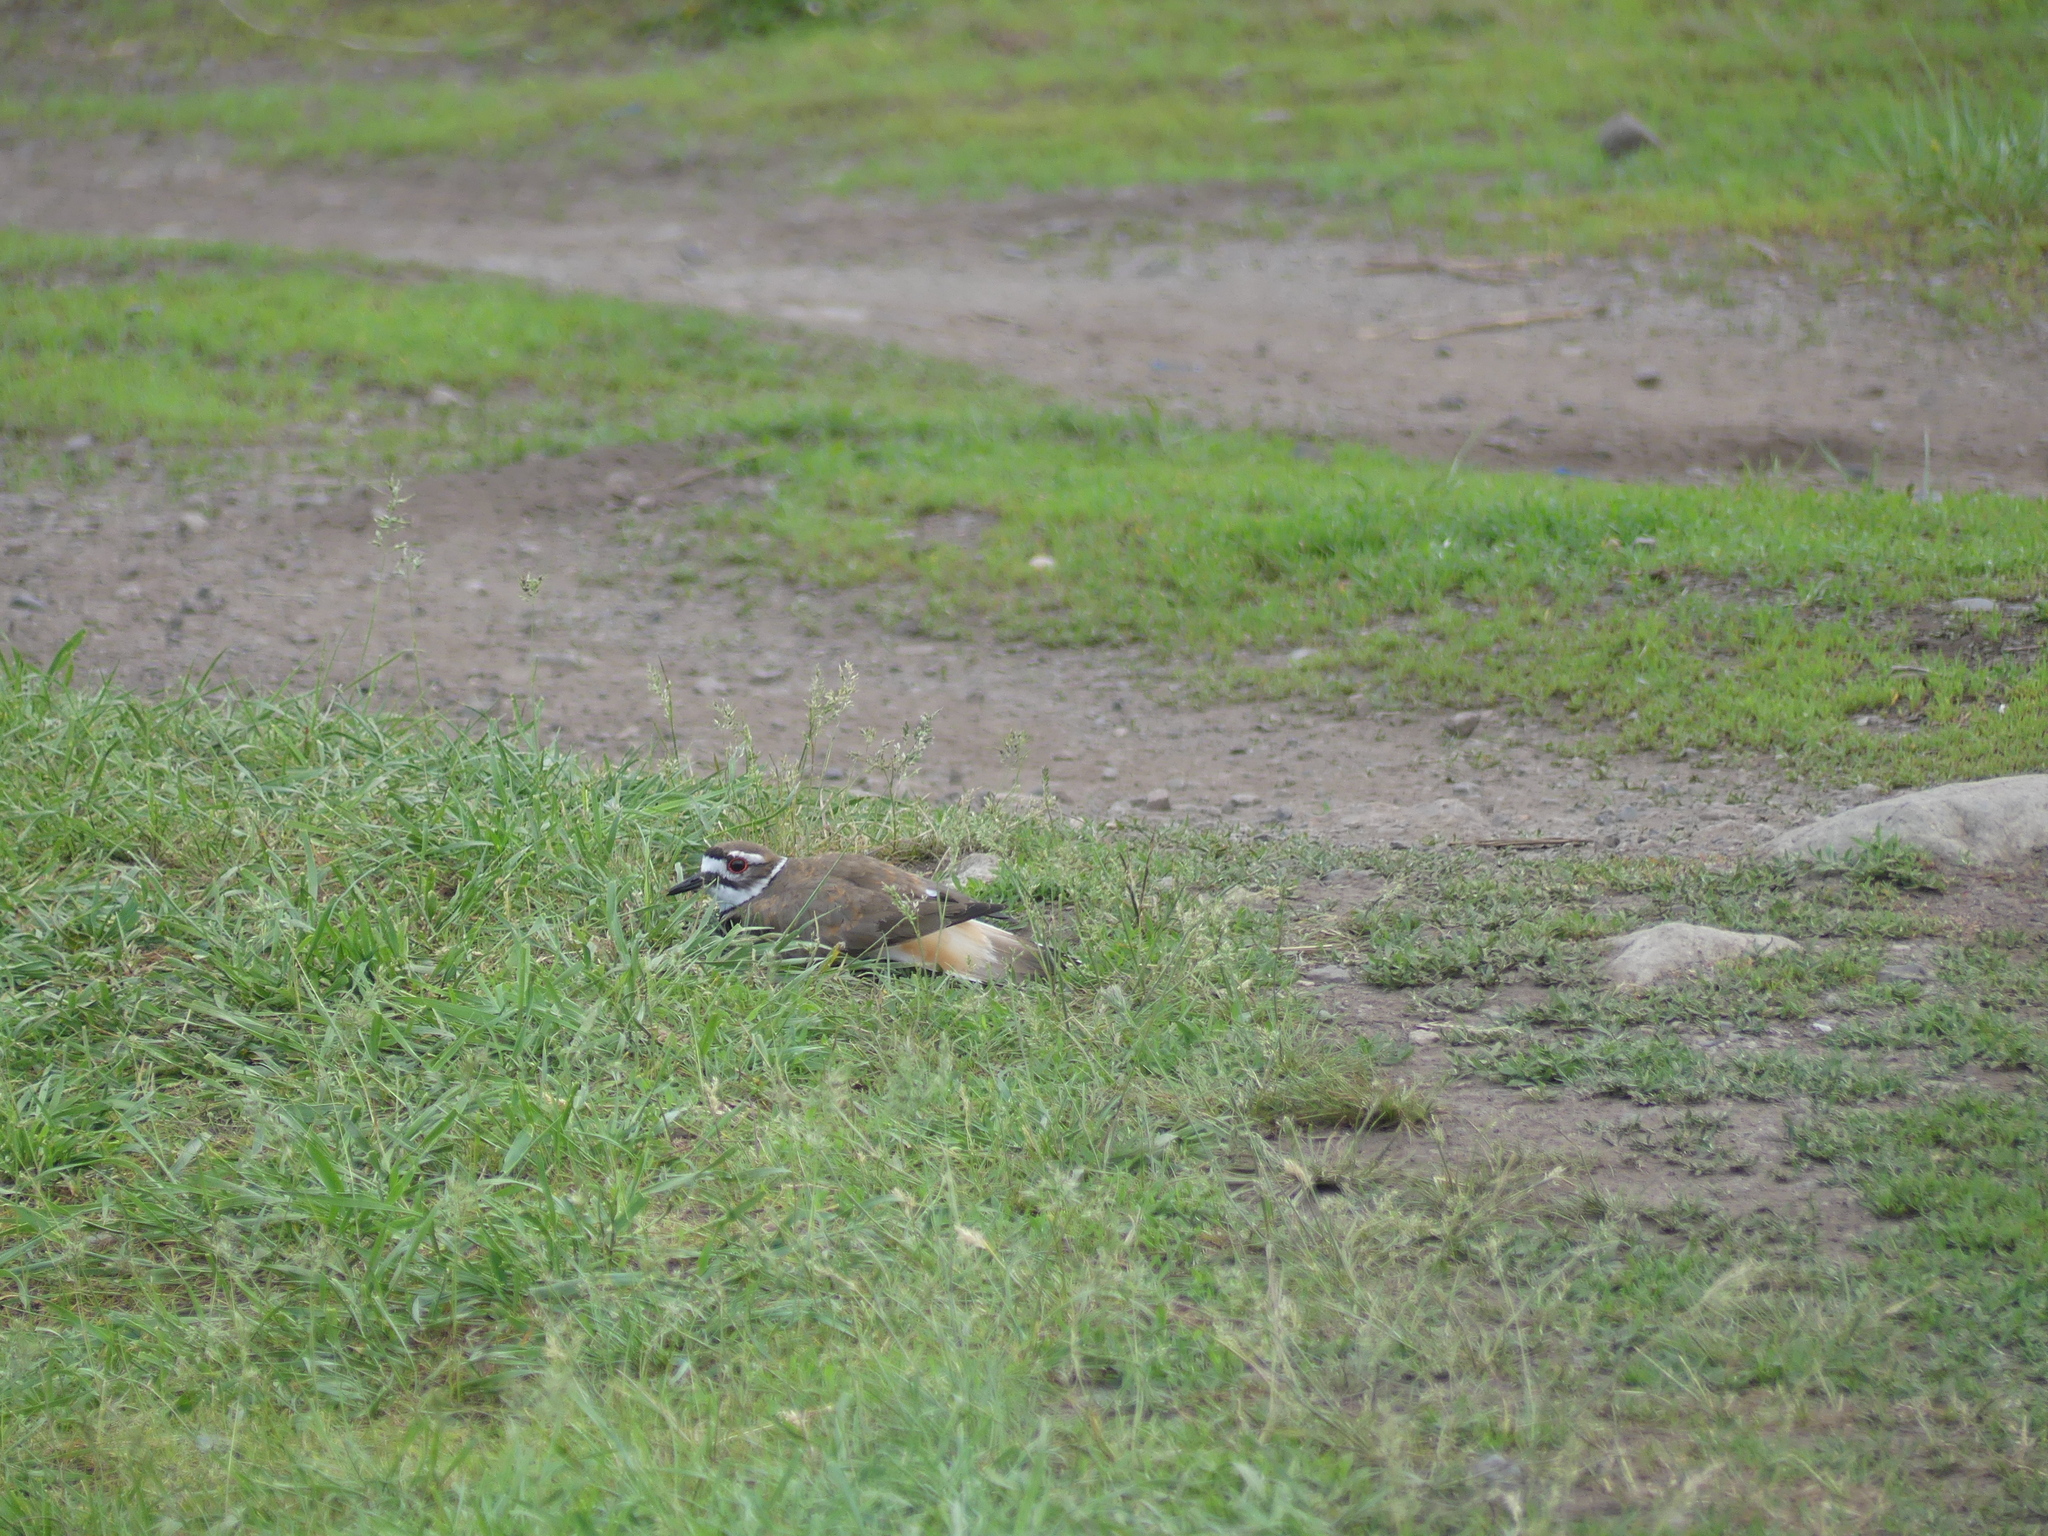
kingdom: Animalia
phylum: Chordata
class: Aves
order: Charadriiformes
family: Charadriidae
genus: Charadrius
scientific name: Charadrius vociferus
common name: Killdeer
